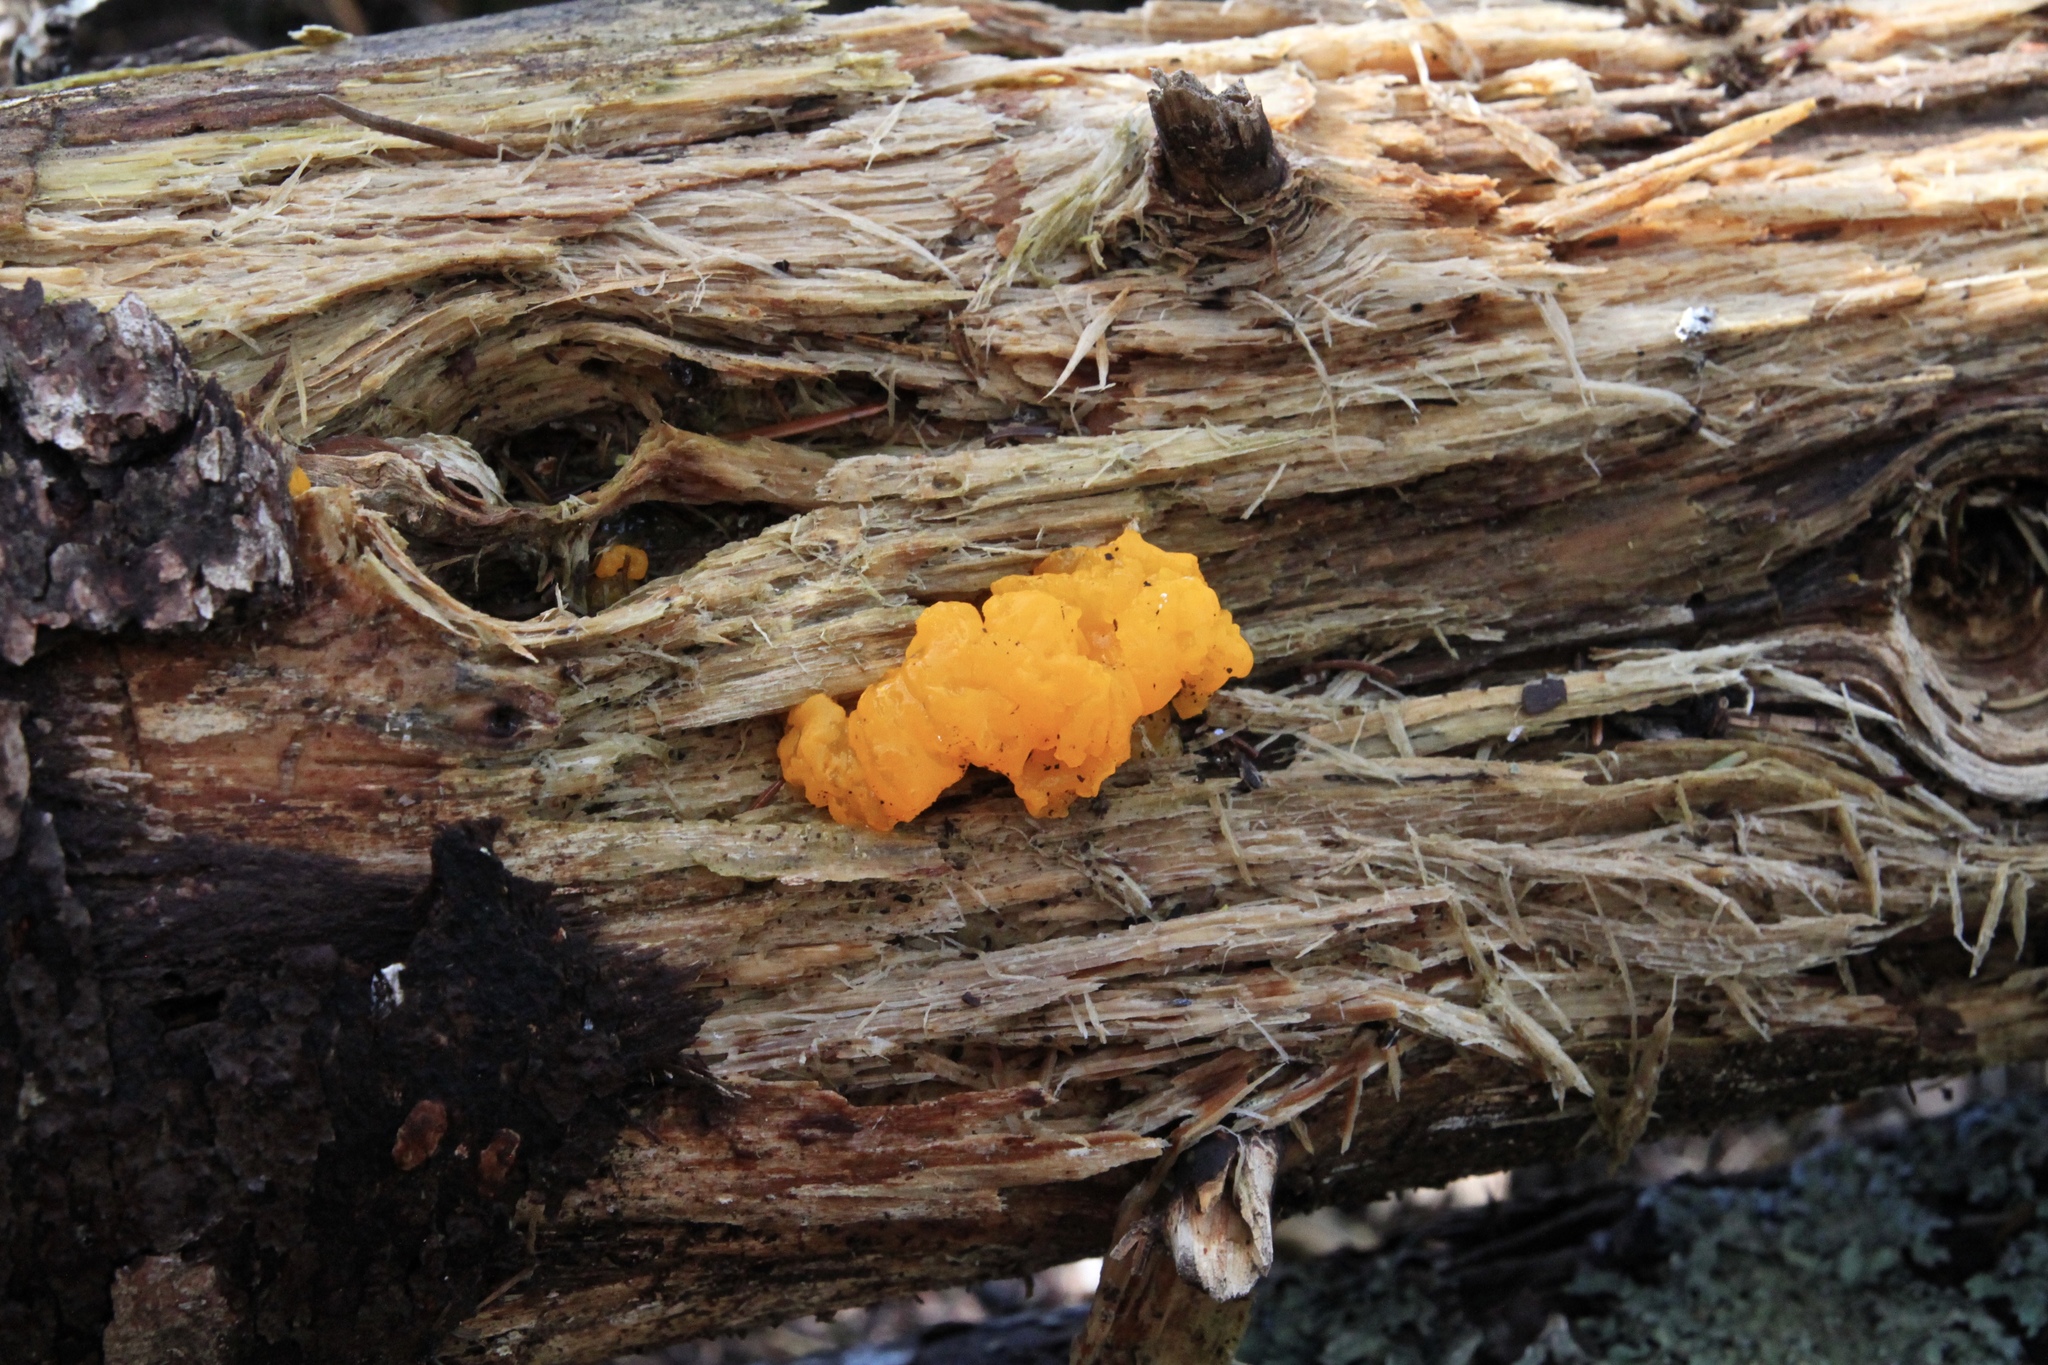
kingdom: Fungi
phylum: Basidiomycota
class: Dacrymycetes
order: Dacrymycetales
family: Dacrymycetaceae
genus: Dacrymyces
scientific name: Dacrymyces chrysospermus
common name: Orange jelly spot
